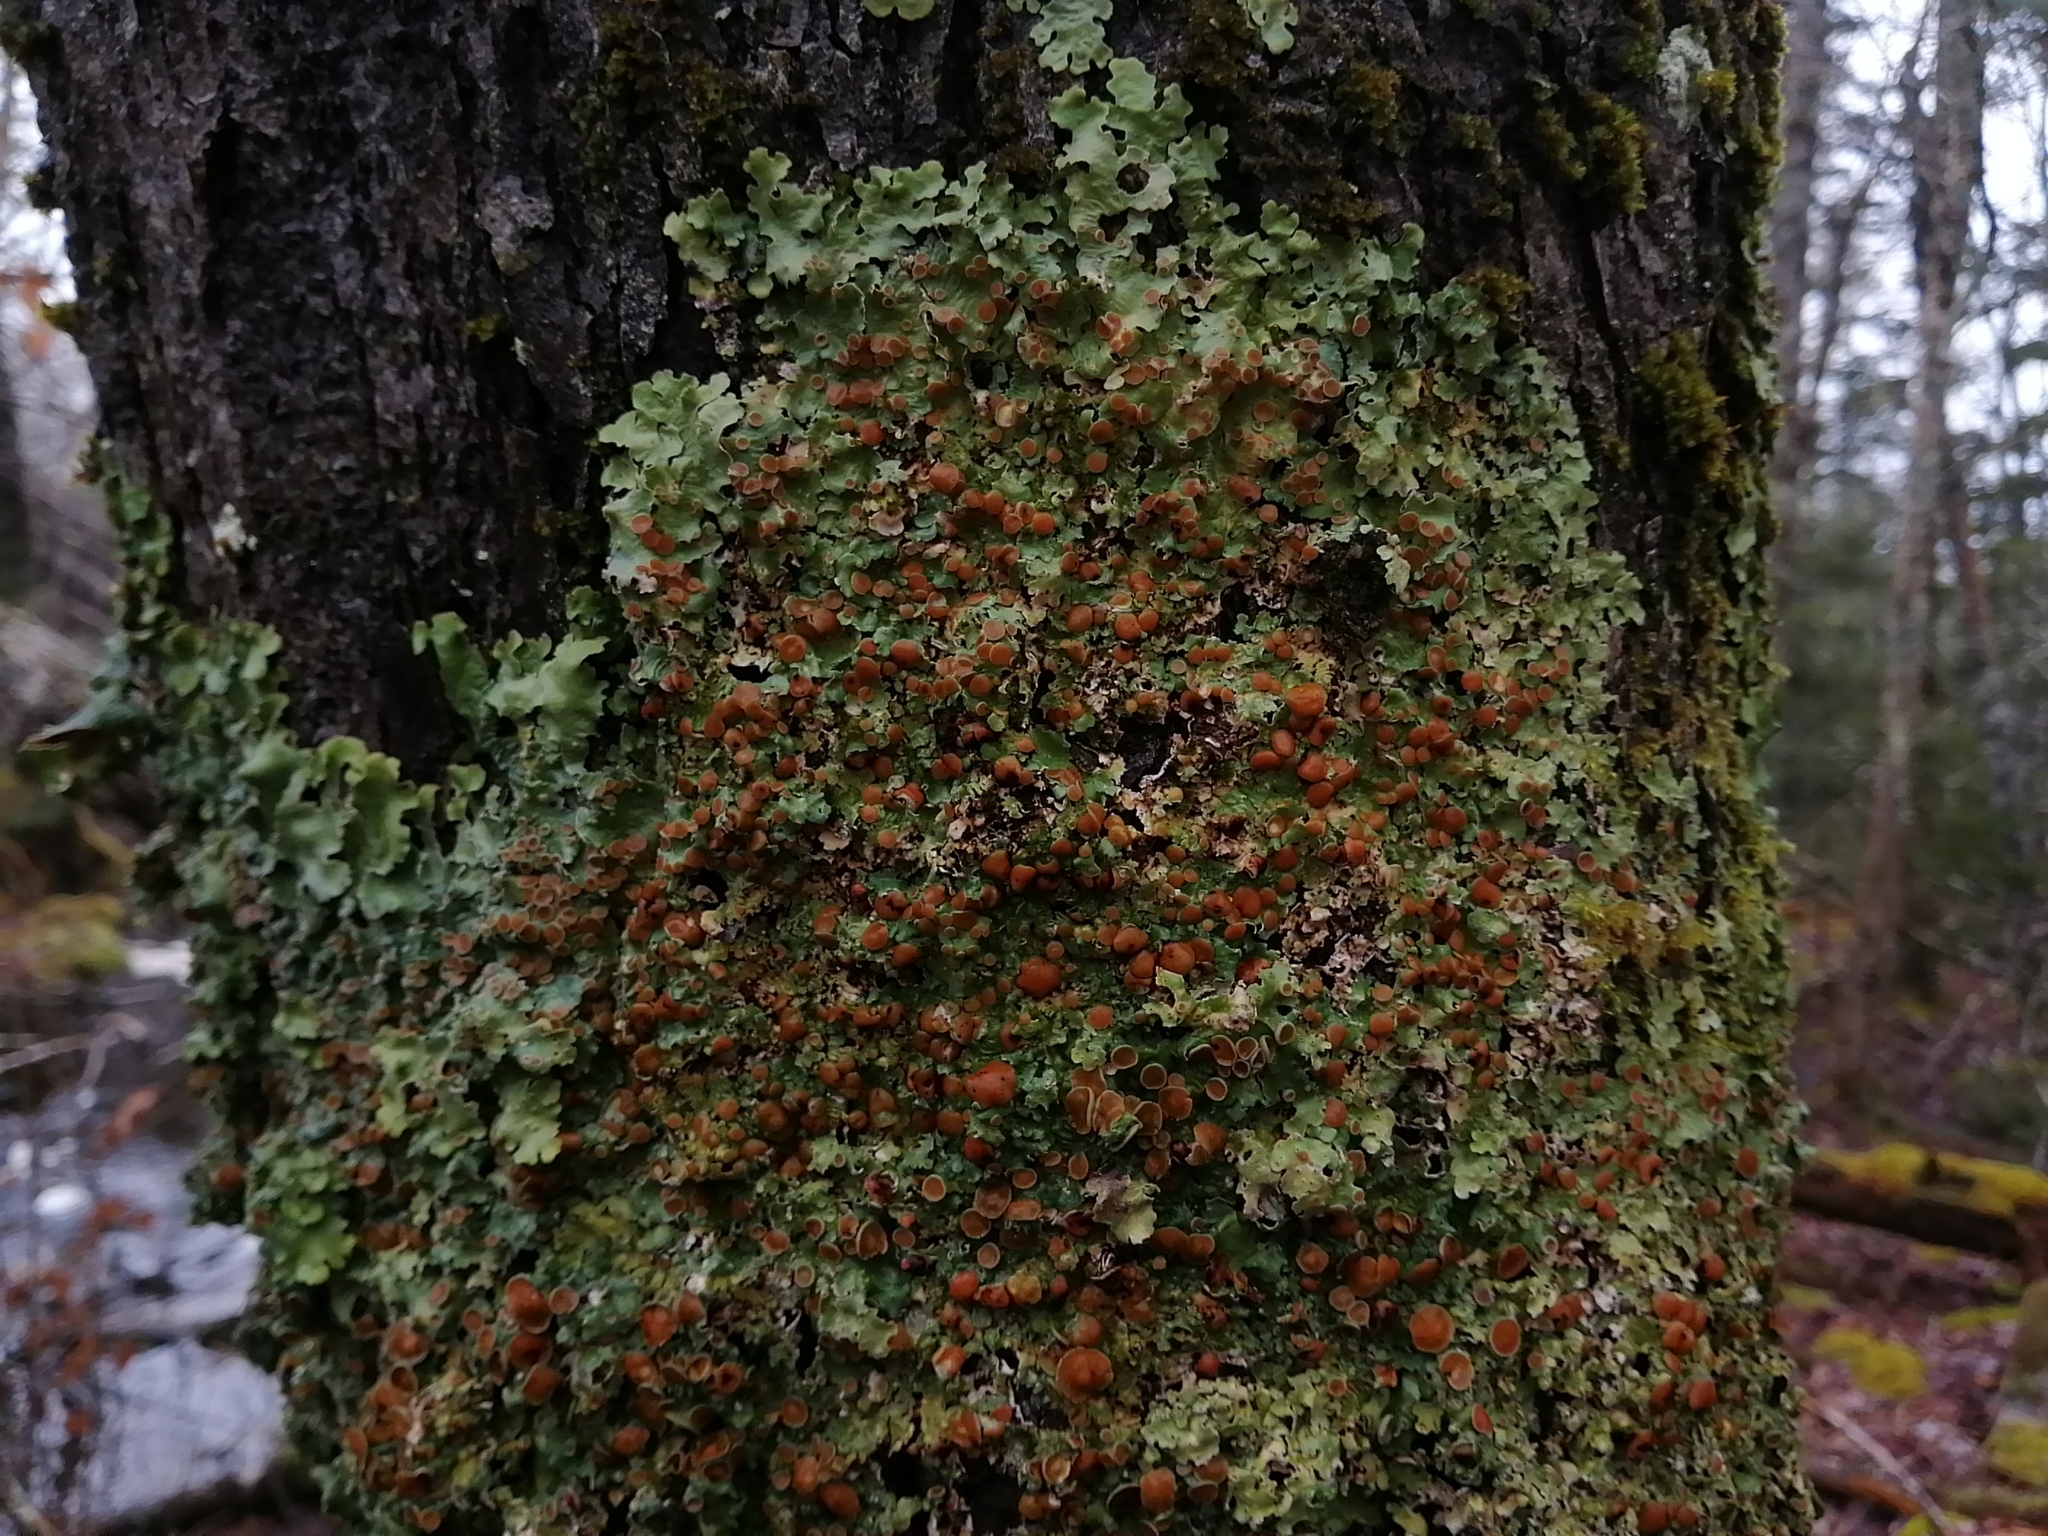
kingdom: Fungi
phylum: Ascomycota
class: Lecanoromycetes
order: Peltigerales
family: Lobariaceae
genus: Ricasolia
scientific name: Ricasolia quercizans
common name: Smooth lungwort
